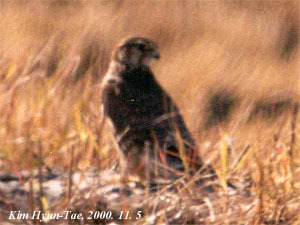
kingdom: Animalia
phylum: Chordata
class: Aves
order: Falconiformes
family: Falconidae
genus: Falco
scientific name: Falco columbarius
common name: Merlin
